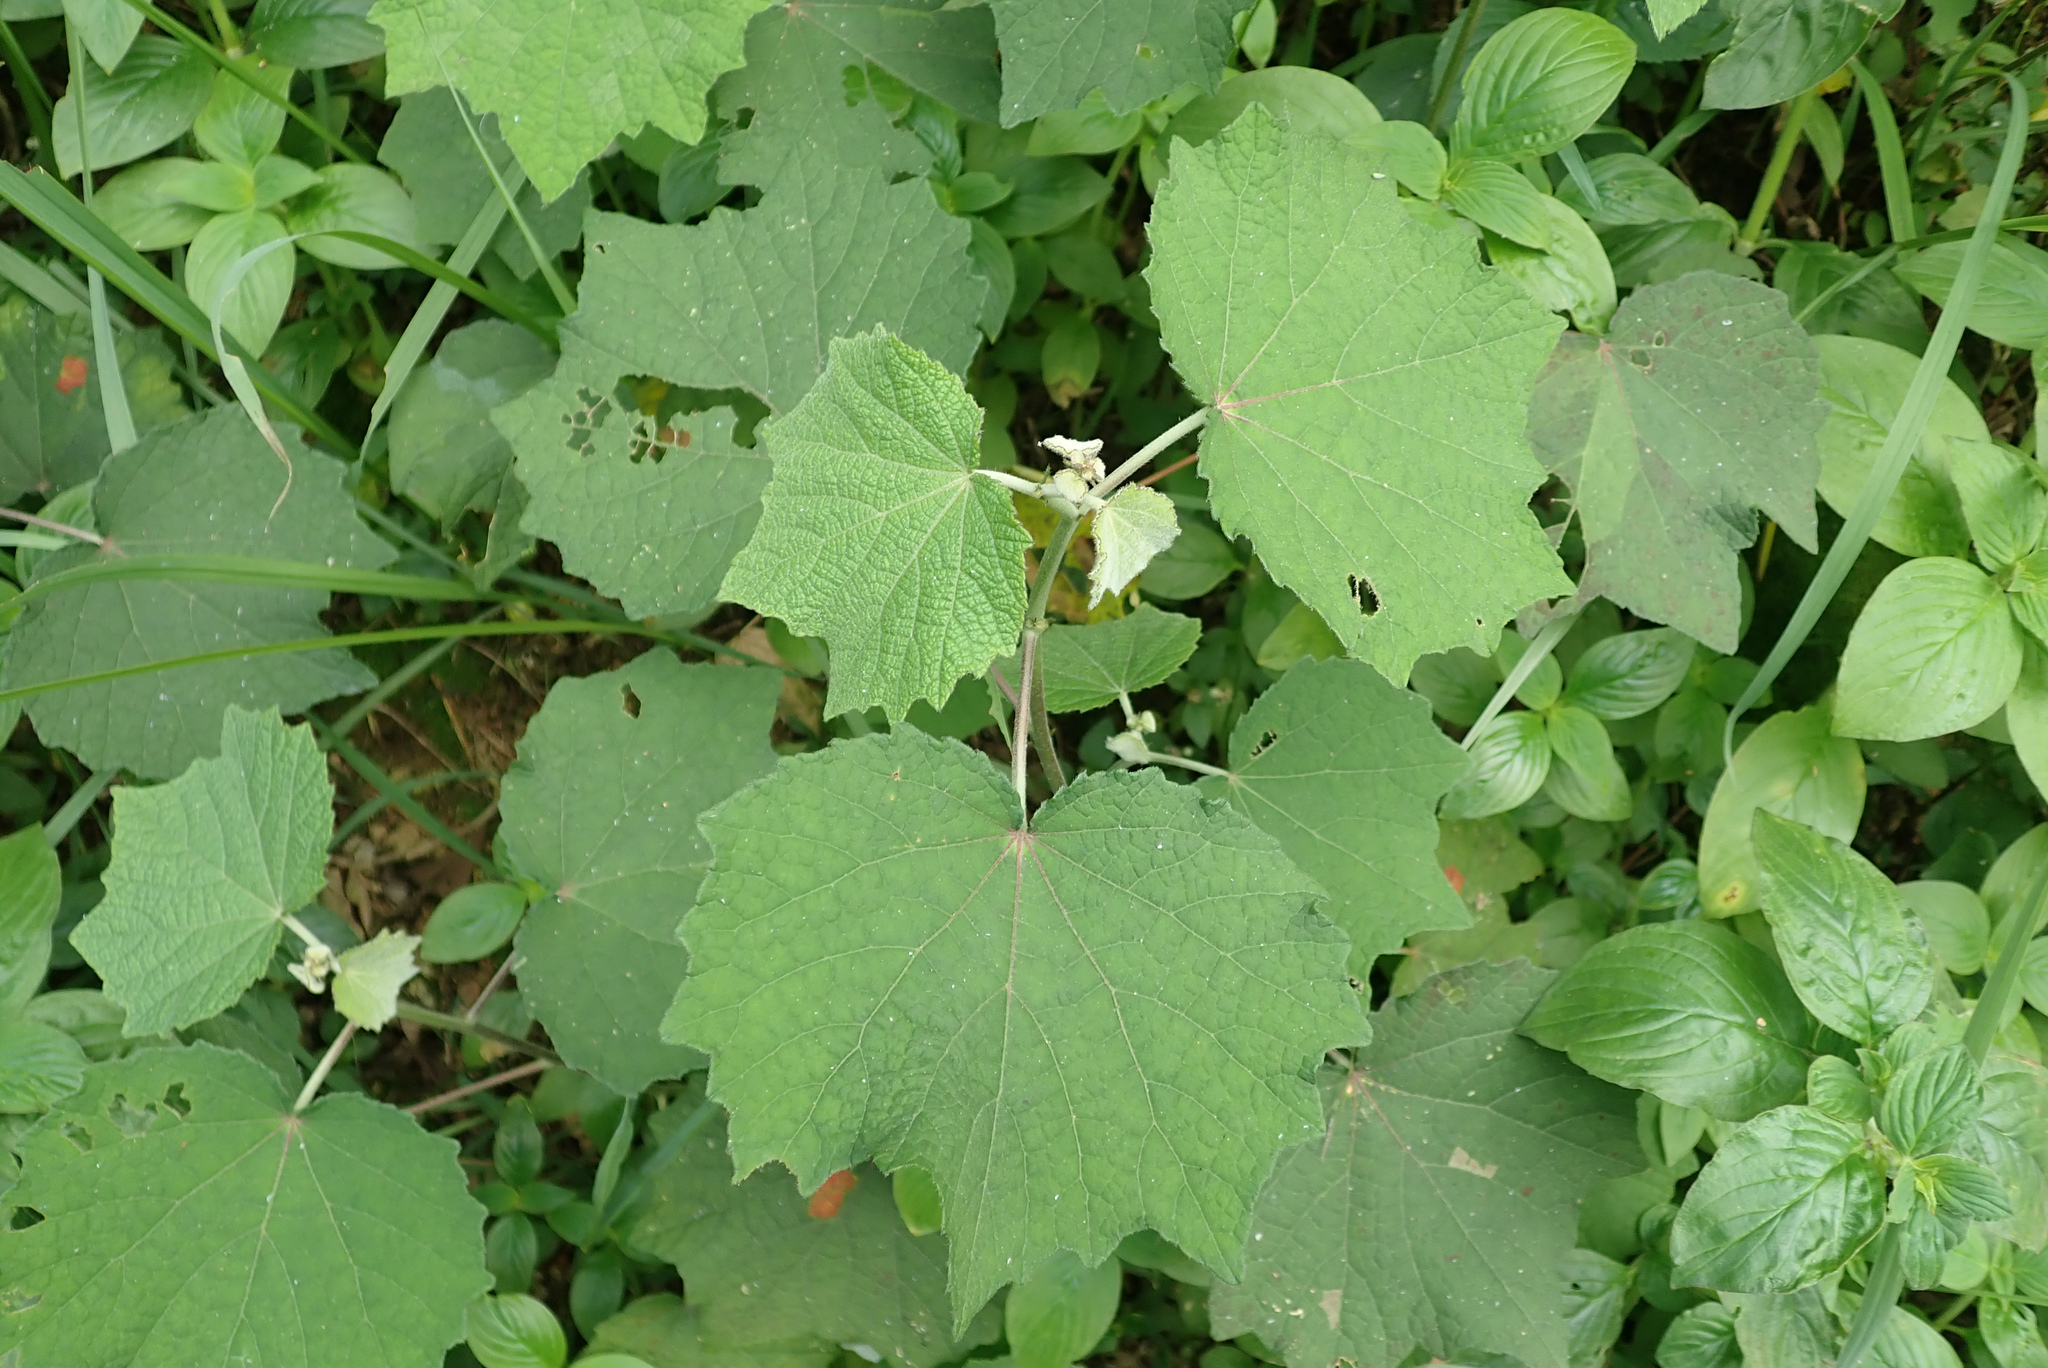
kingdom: Plantae
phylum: Tracheophyta
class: Magnoliopsida
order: Malvales
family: Malvaceae
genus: Urena
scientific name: Urena lobata
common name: Caesarweed
